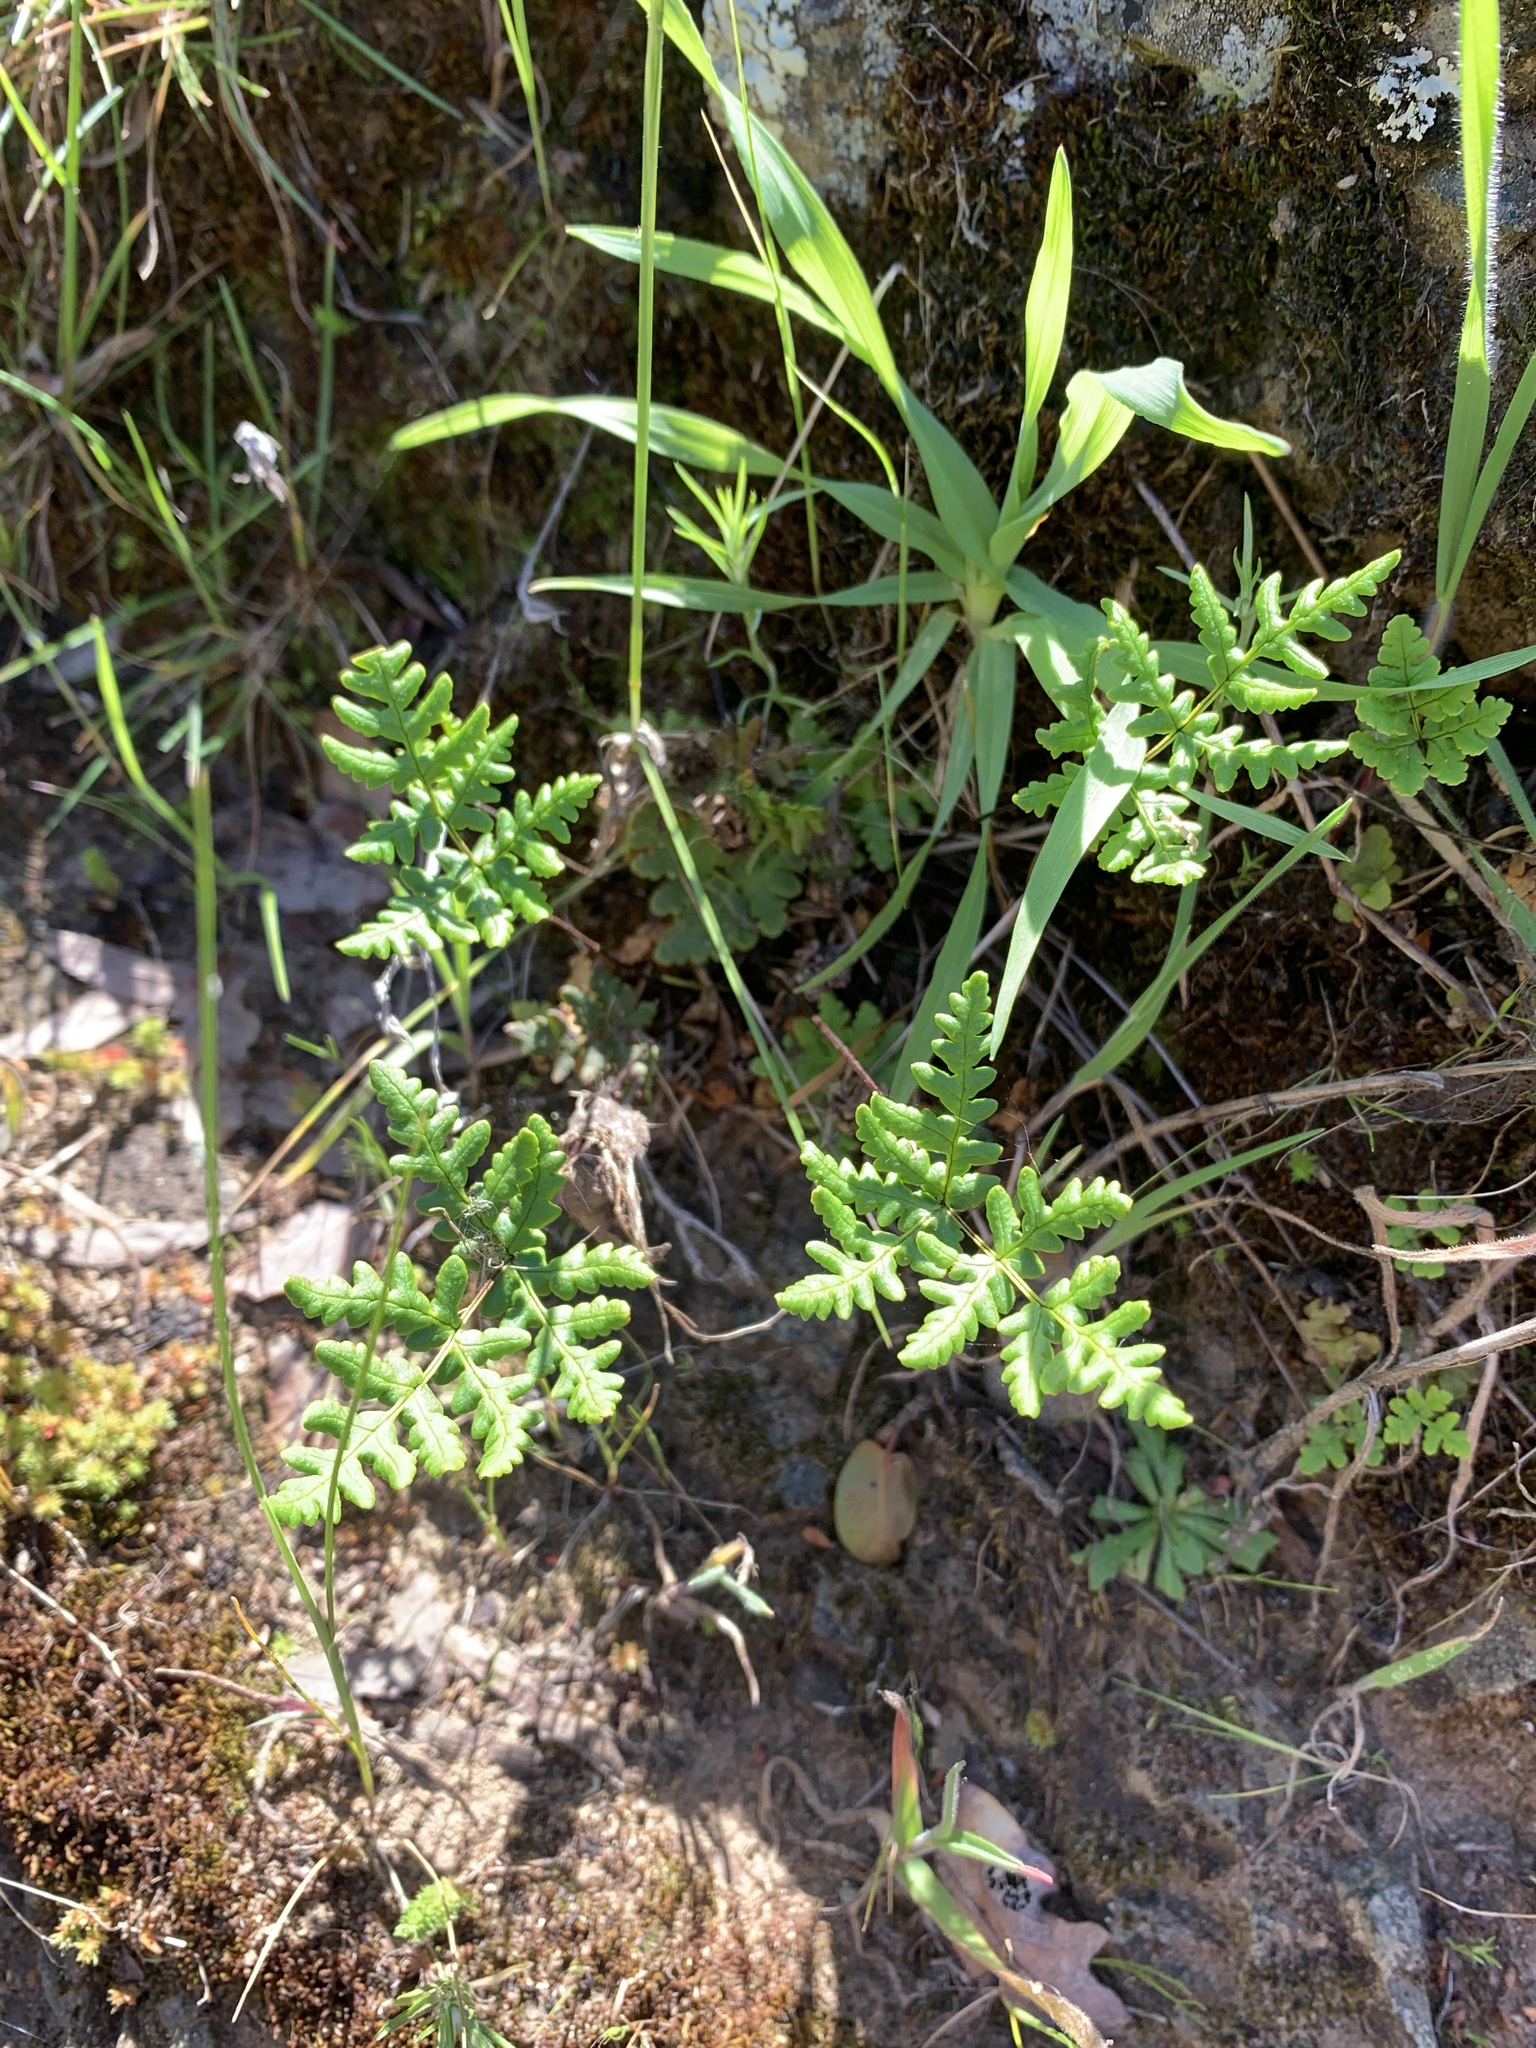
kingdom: Plantae
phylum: Tracheophyta
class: Polypodiopsida
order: Polypodiales
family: Pteridaceae
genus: Pentagramma
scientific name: Pentagramma triangularis
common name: Gold fern
